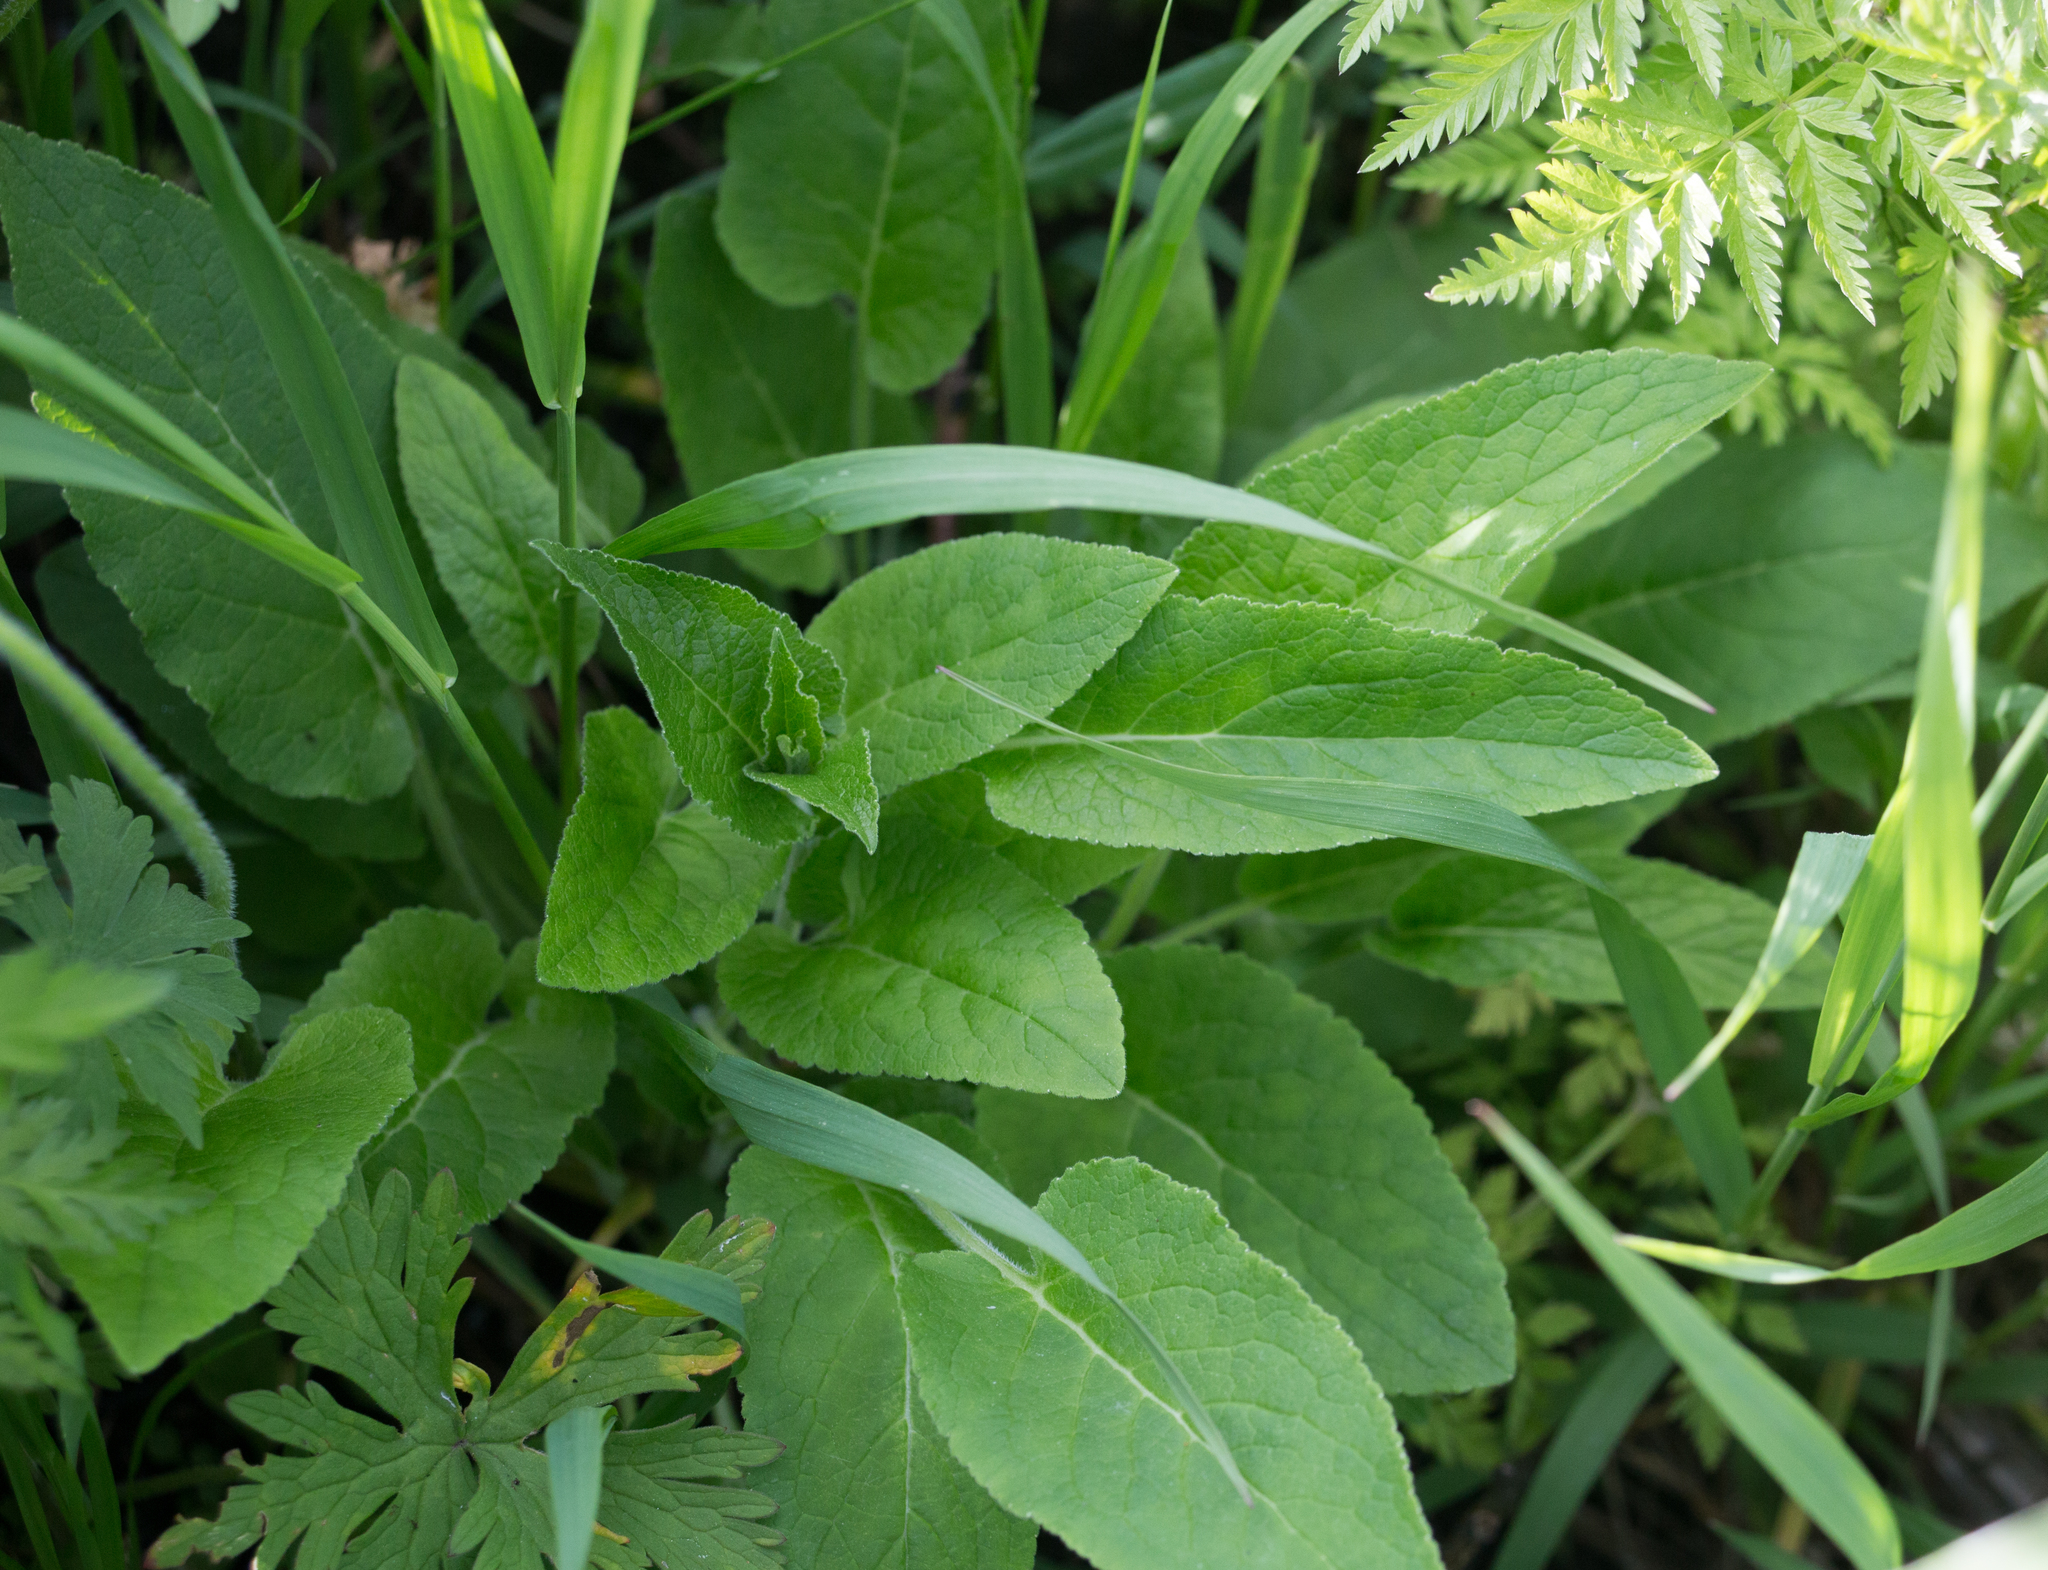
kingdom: Plantae
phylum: Tracheophyta
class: Magnoliopsida
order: Asterales
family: Campanulaceae
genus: Campanula
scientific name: Campanula glomerata
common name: Clustered bellflower
